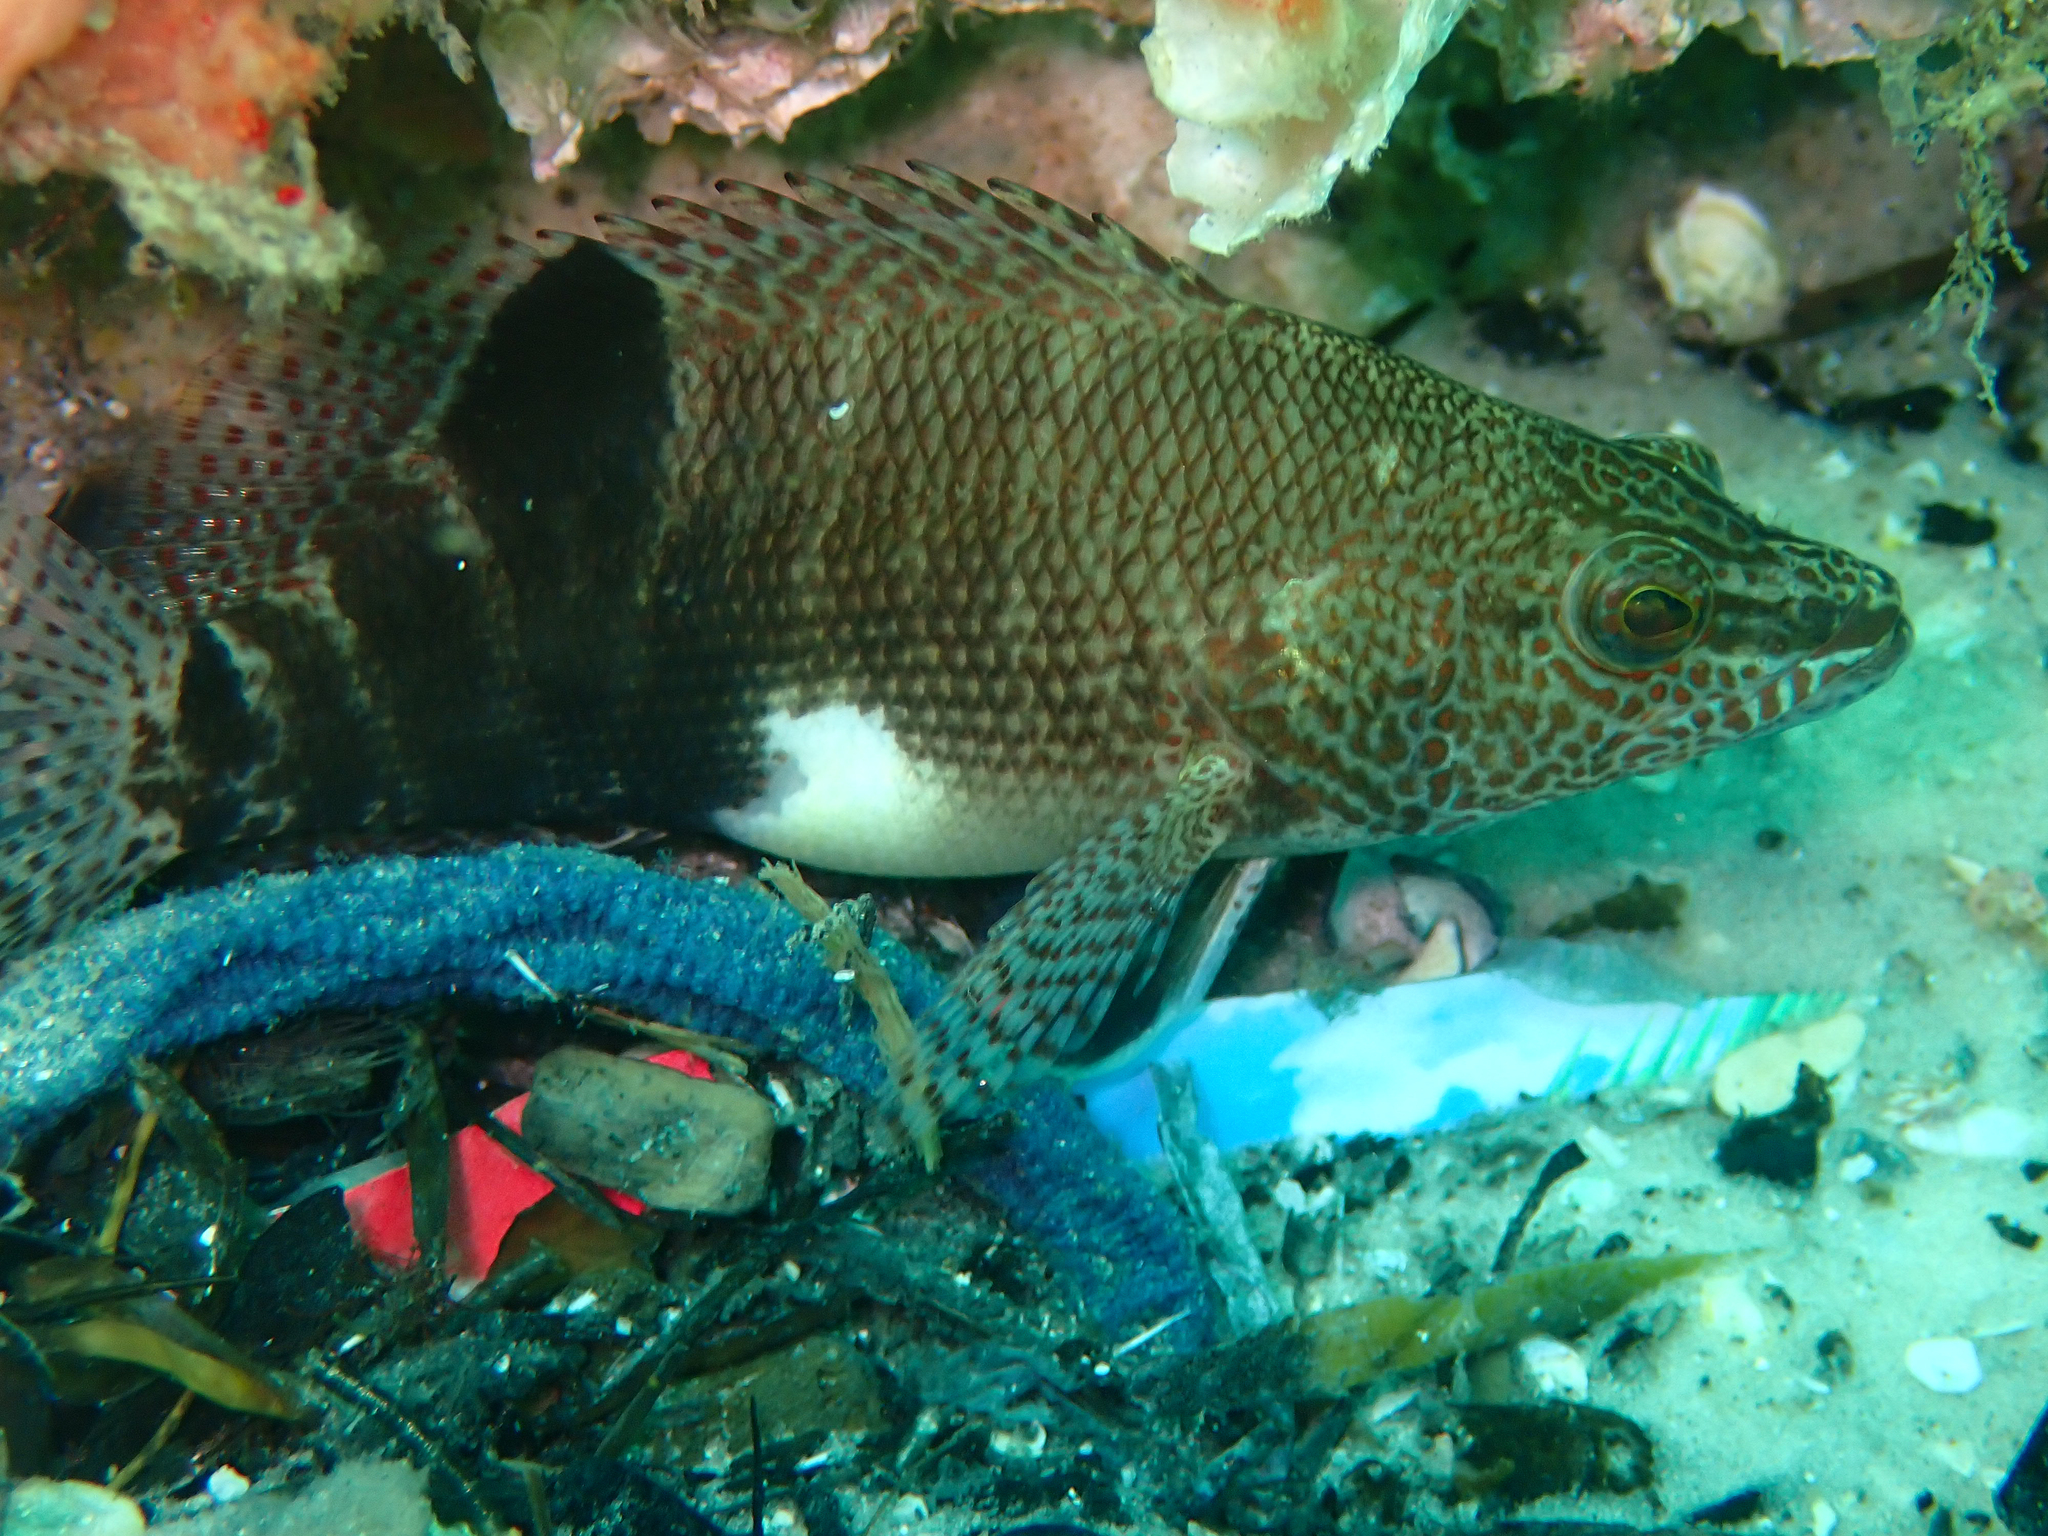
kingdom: Animalia
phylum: Chordata
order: Perciformes
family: Serranidae
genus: Serranus
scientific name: Serranus subligarius
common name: Belted sandfish
